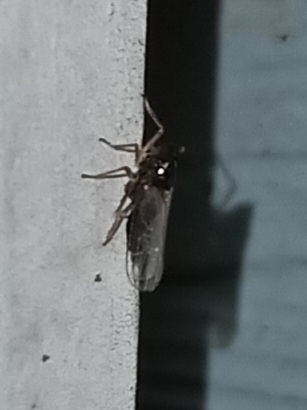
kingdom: Animalia
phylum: Arthropoda
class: Insecta
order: Hemiptera
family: Delphacidae
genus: Pissonotus
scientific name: Pissonotus piceus
